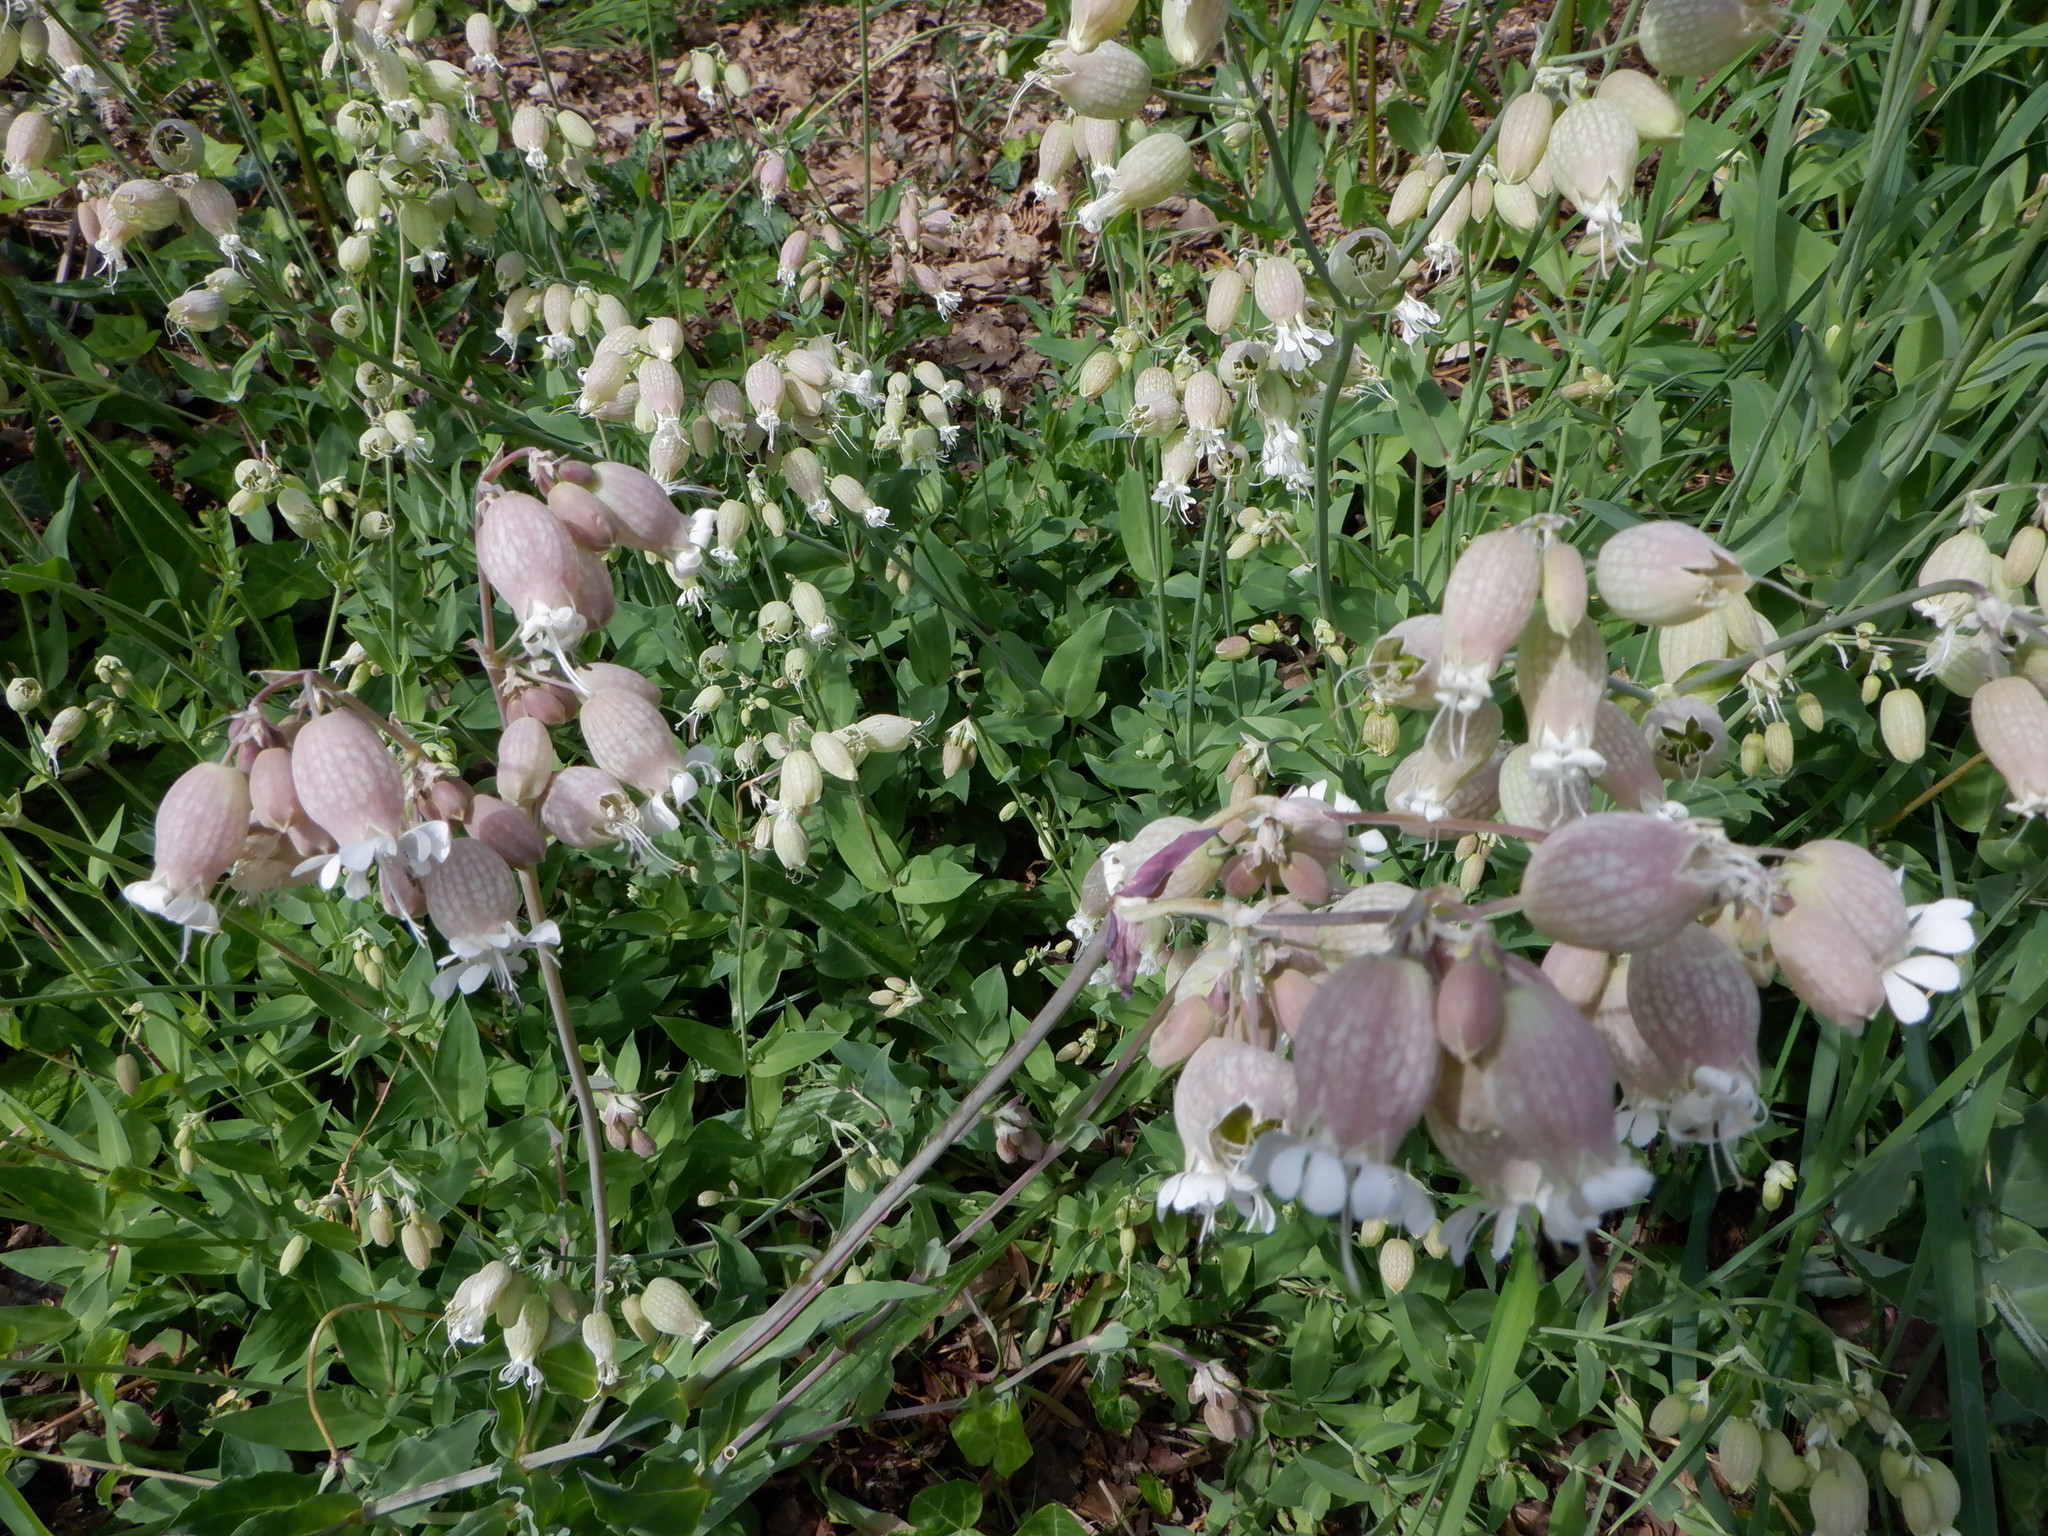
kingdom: Plantae
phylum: Tracheophyta
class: Magnoliopsida
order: Caryophyllales
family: Caryophyllaceae
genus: Silene
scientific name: Silene vulgaris
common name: Bladder campion
